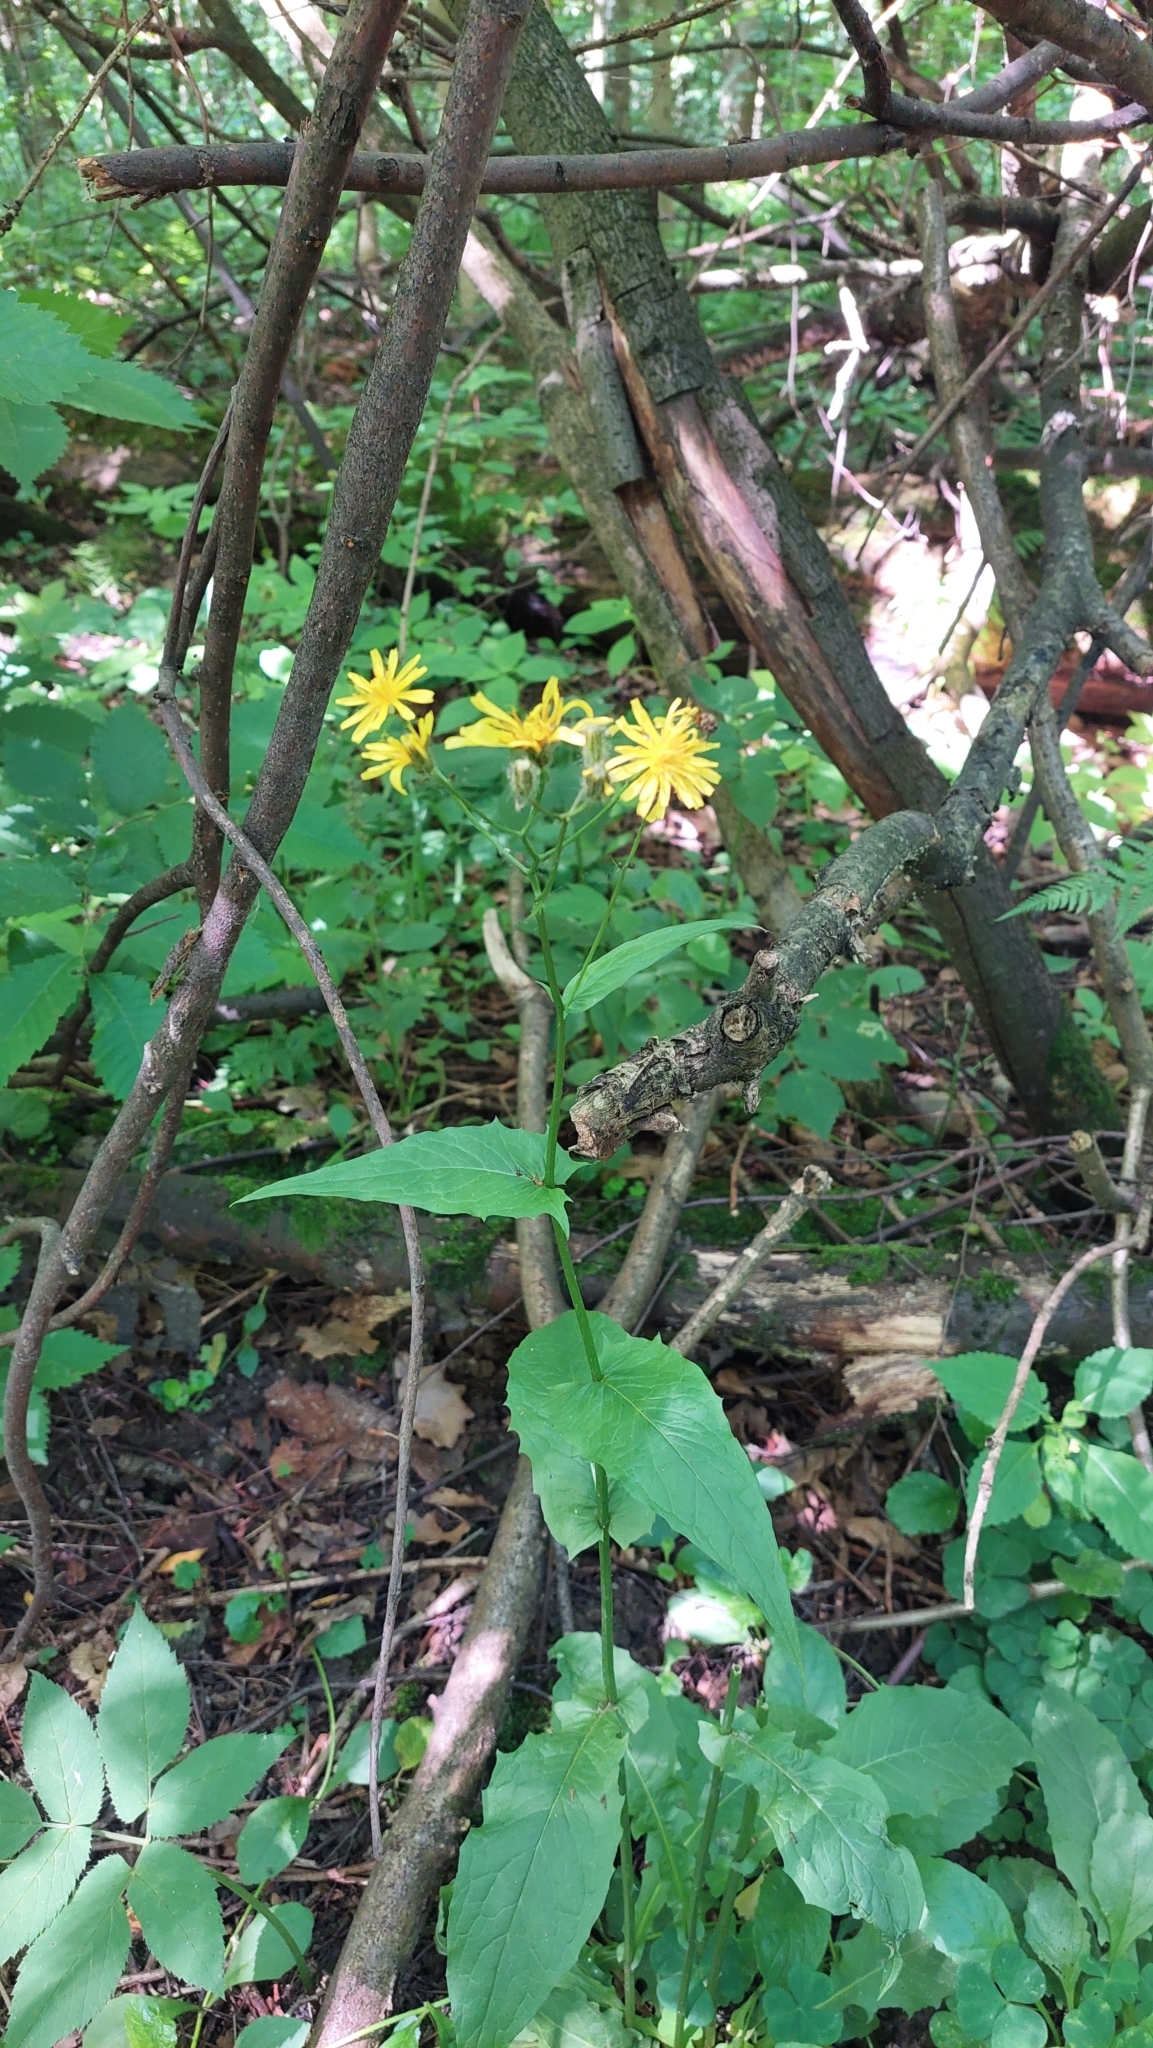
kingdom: Plantae
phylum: Tracheophyta
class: Magnoliopsida
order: Asterales
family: Asteraceae
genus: Crepis
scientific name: Crepis paludosa
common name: Marsh hawk's-beard
